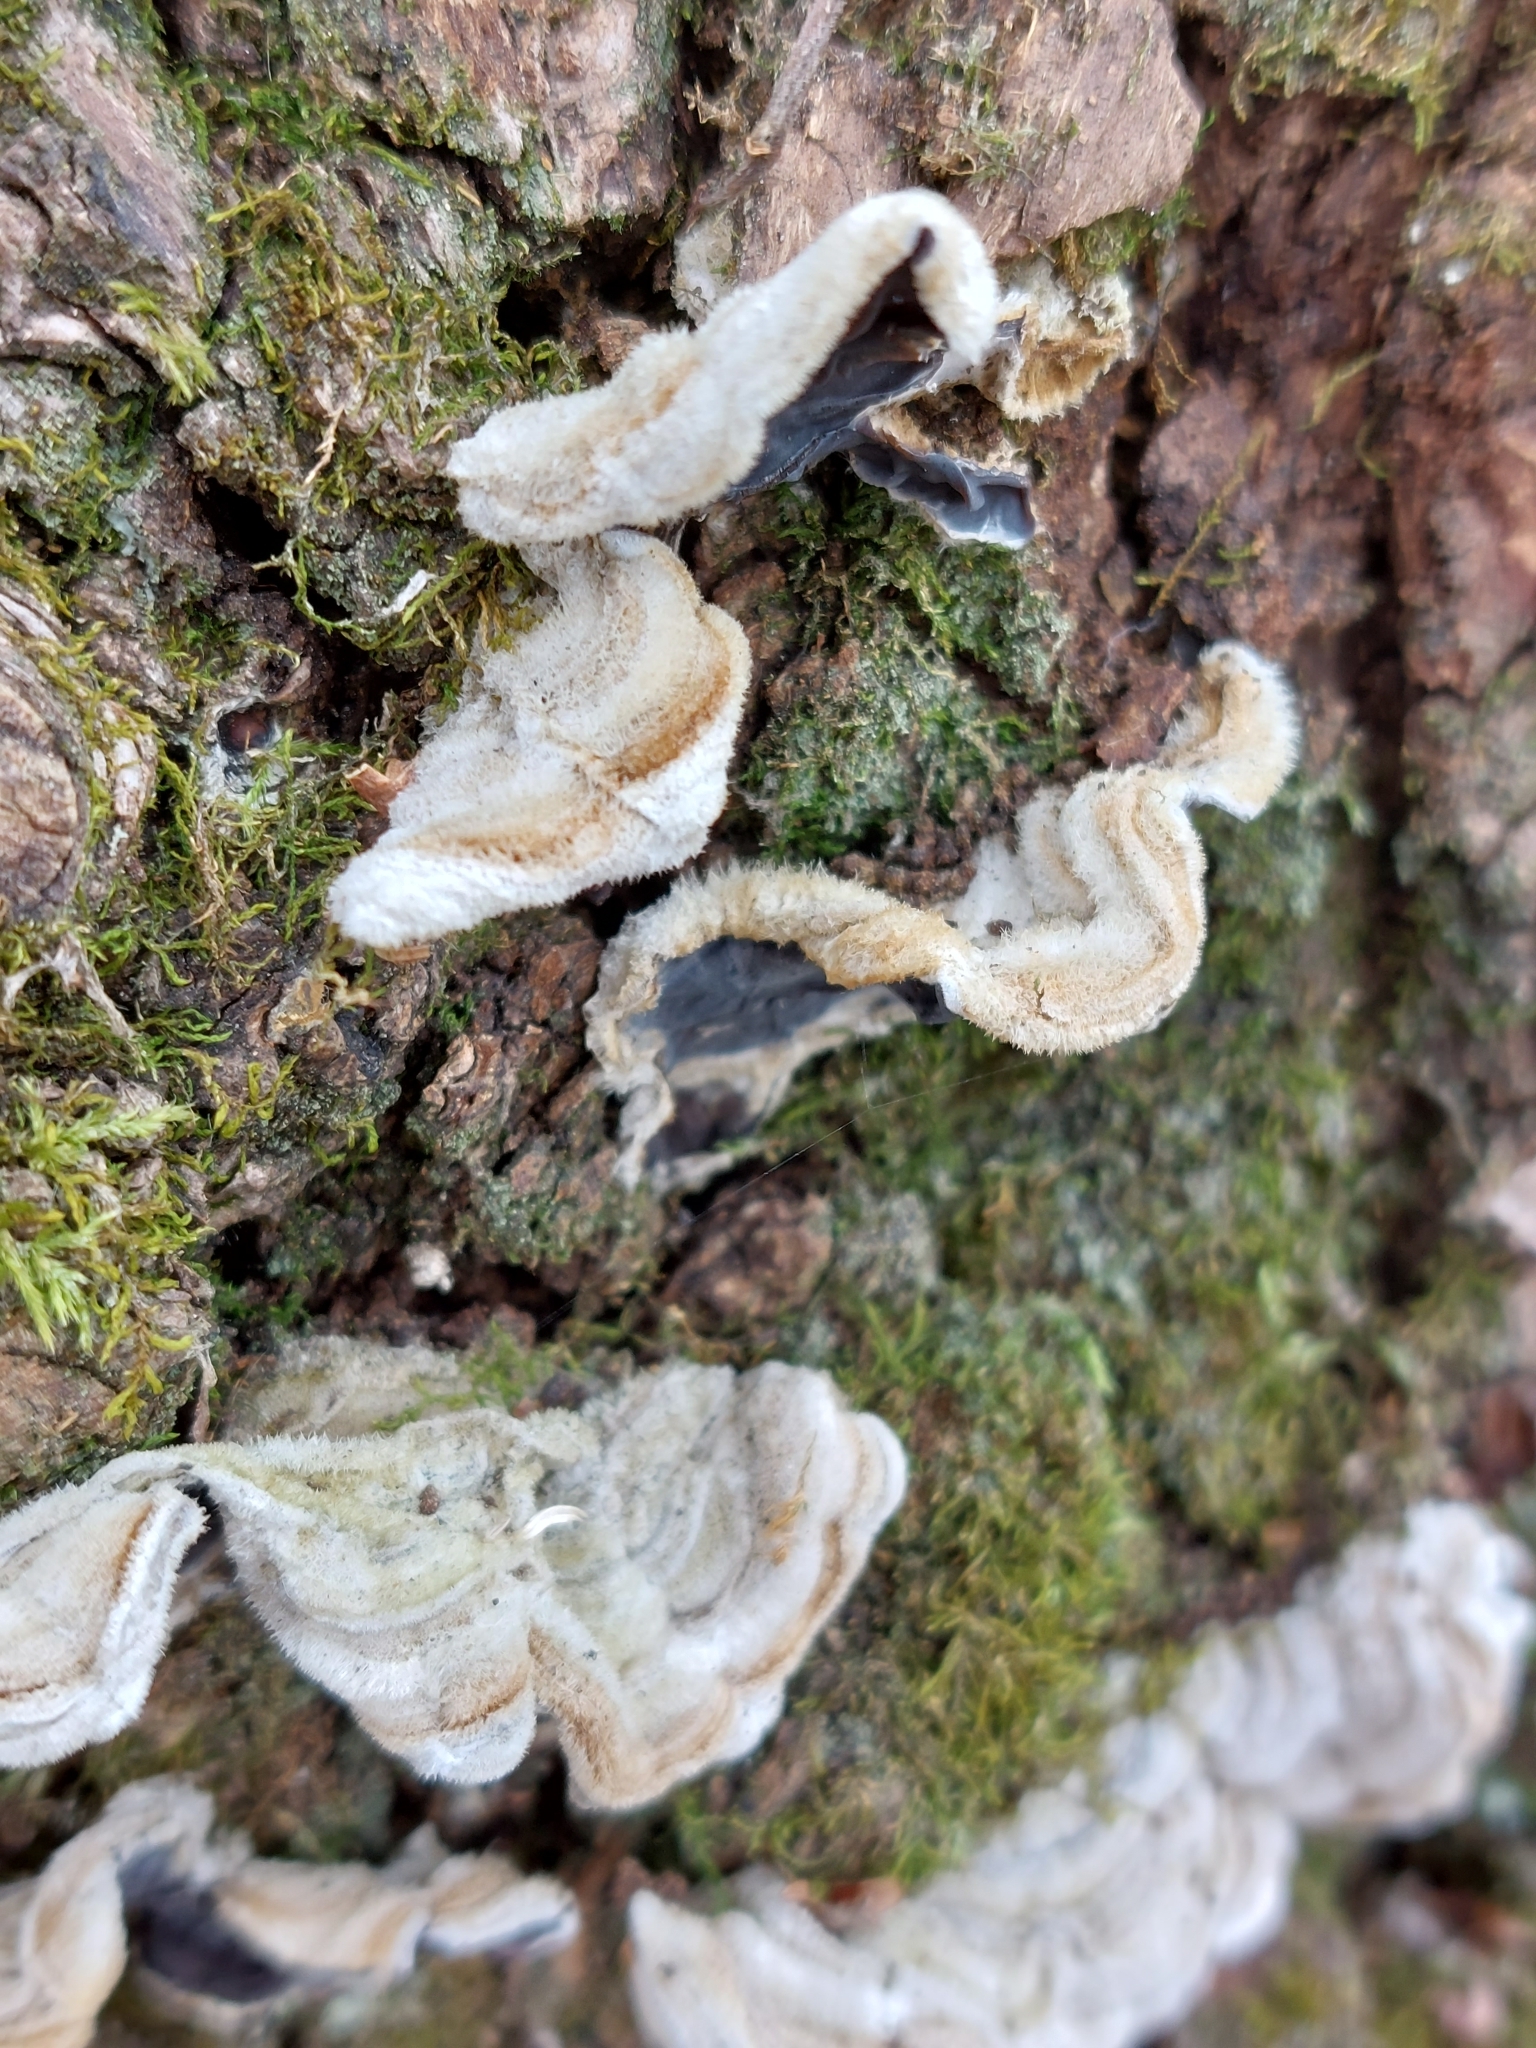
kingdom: Fungi
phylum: Basidiomycota
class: Agaricomycetes
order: Auriculariales
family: Auriculariaceae
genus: Auricularia
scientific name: Auricularia mesenterica
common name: Tripe fungus
